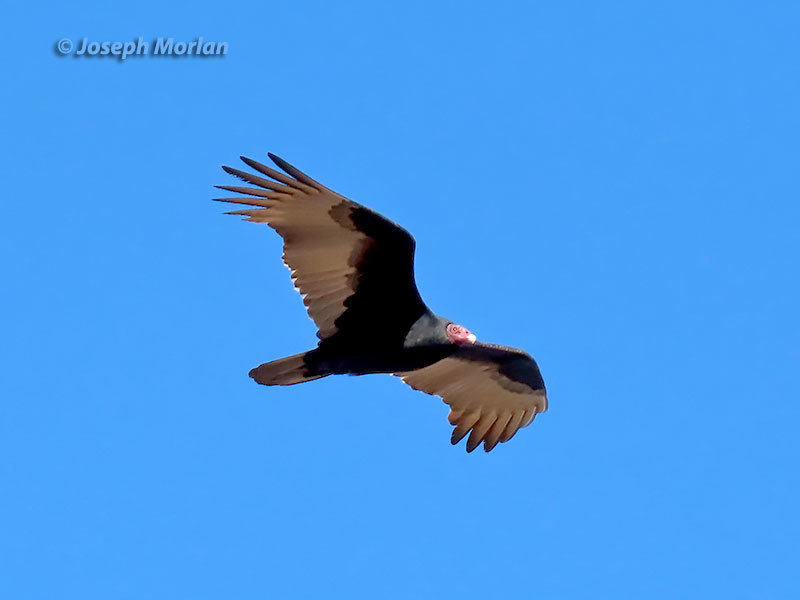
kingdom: Animalia
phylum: Chordata
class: Aves
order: Accipitriformes
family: Cathartidae
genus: Cathartes
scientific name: Cathartes aura
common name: Turkey vulture
